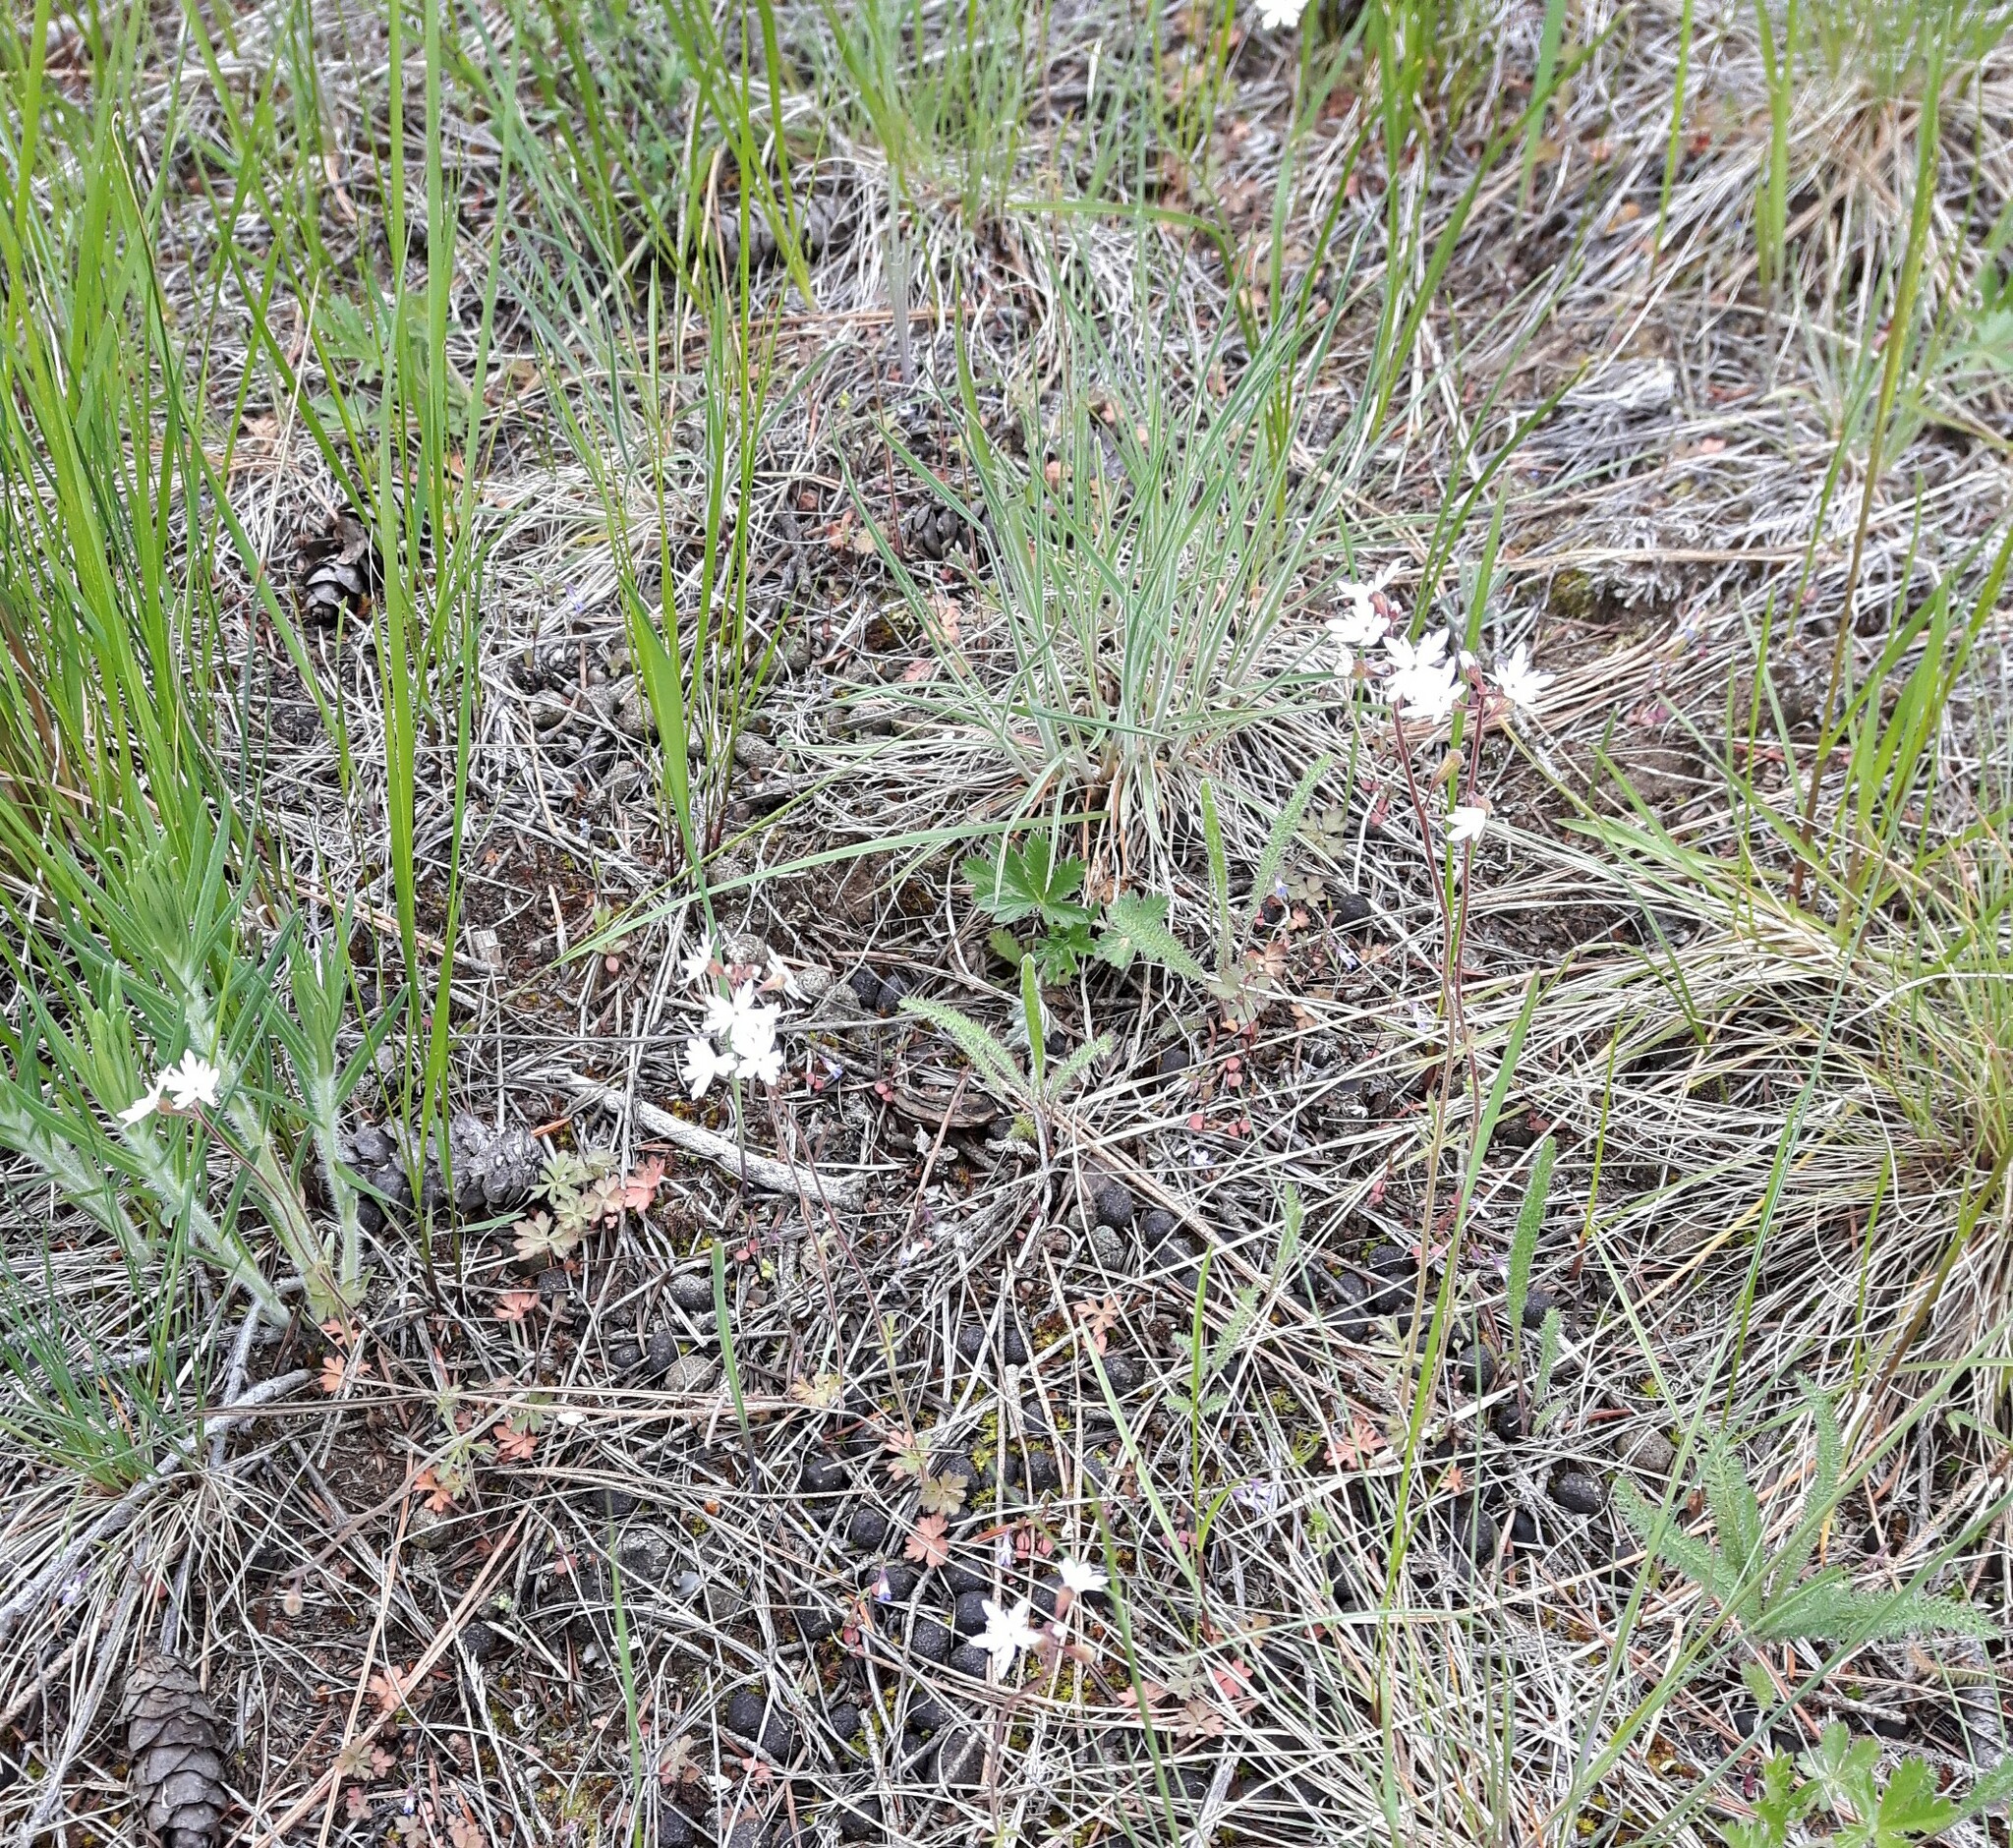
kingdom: Plantae
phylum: Tracheophyta
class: Magnoliopsida
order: Saxifragales
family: Saxifragaceae
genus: Lithophragma
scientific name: Lithophragma parviflorum
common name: Small-flowered fringe-cup
